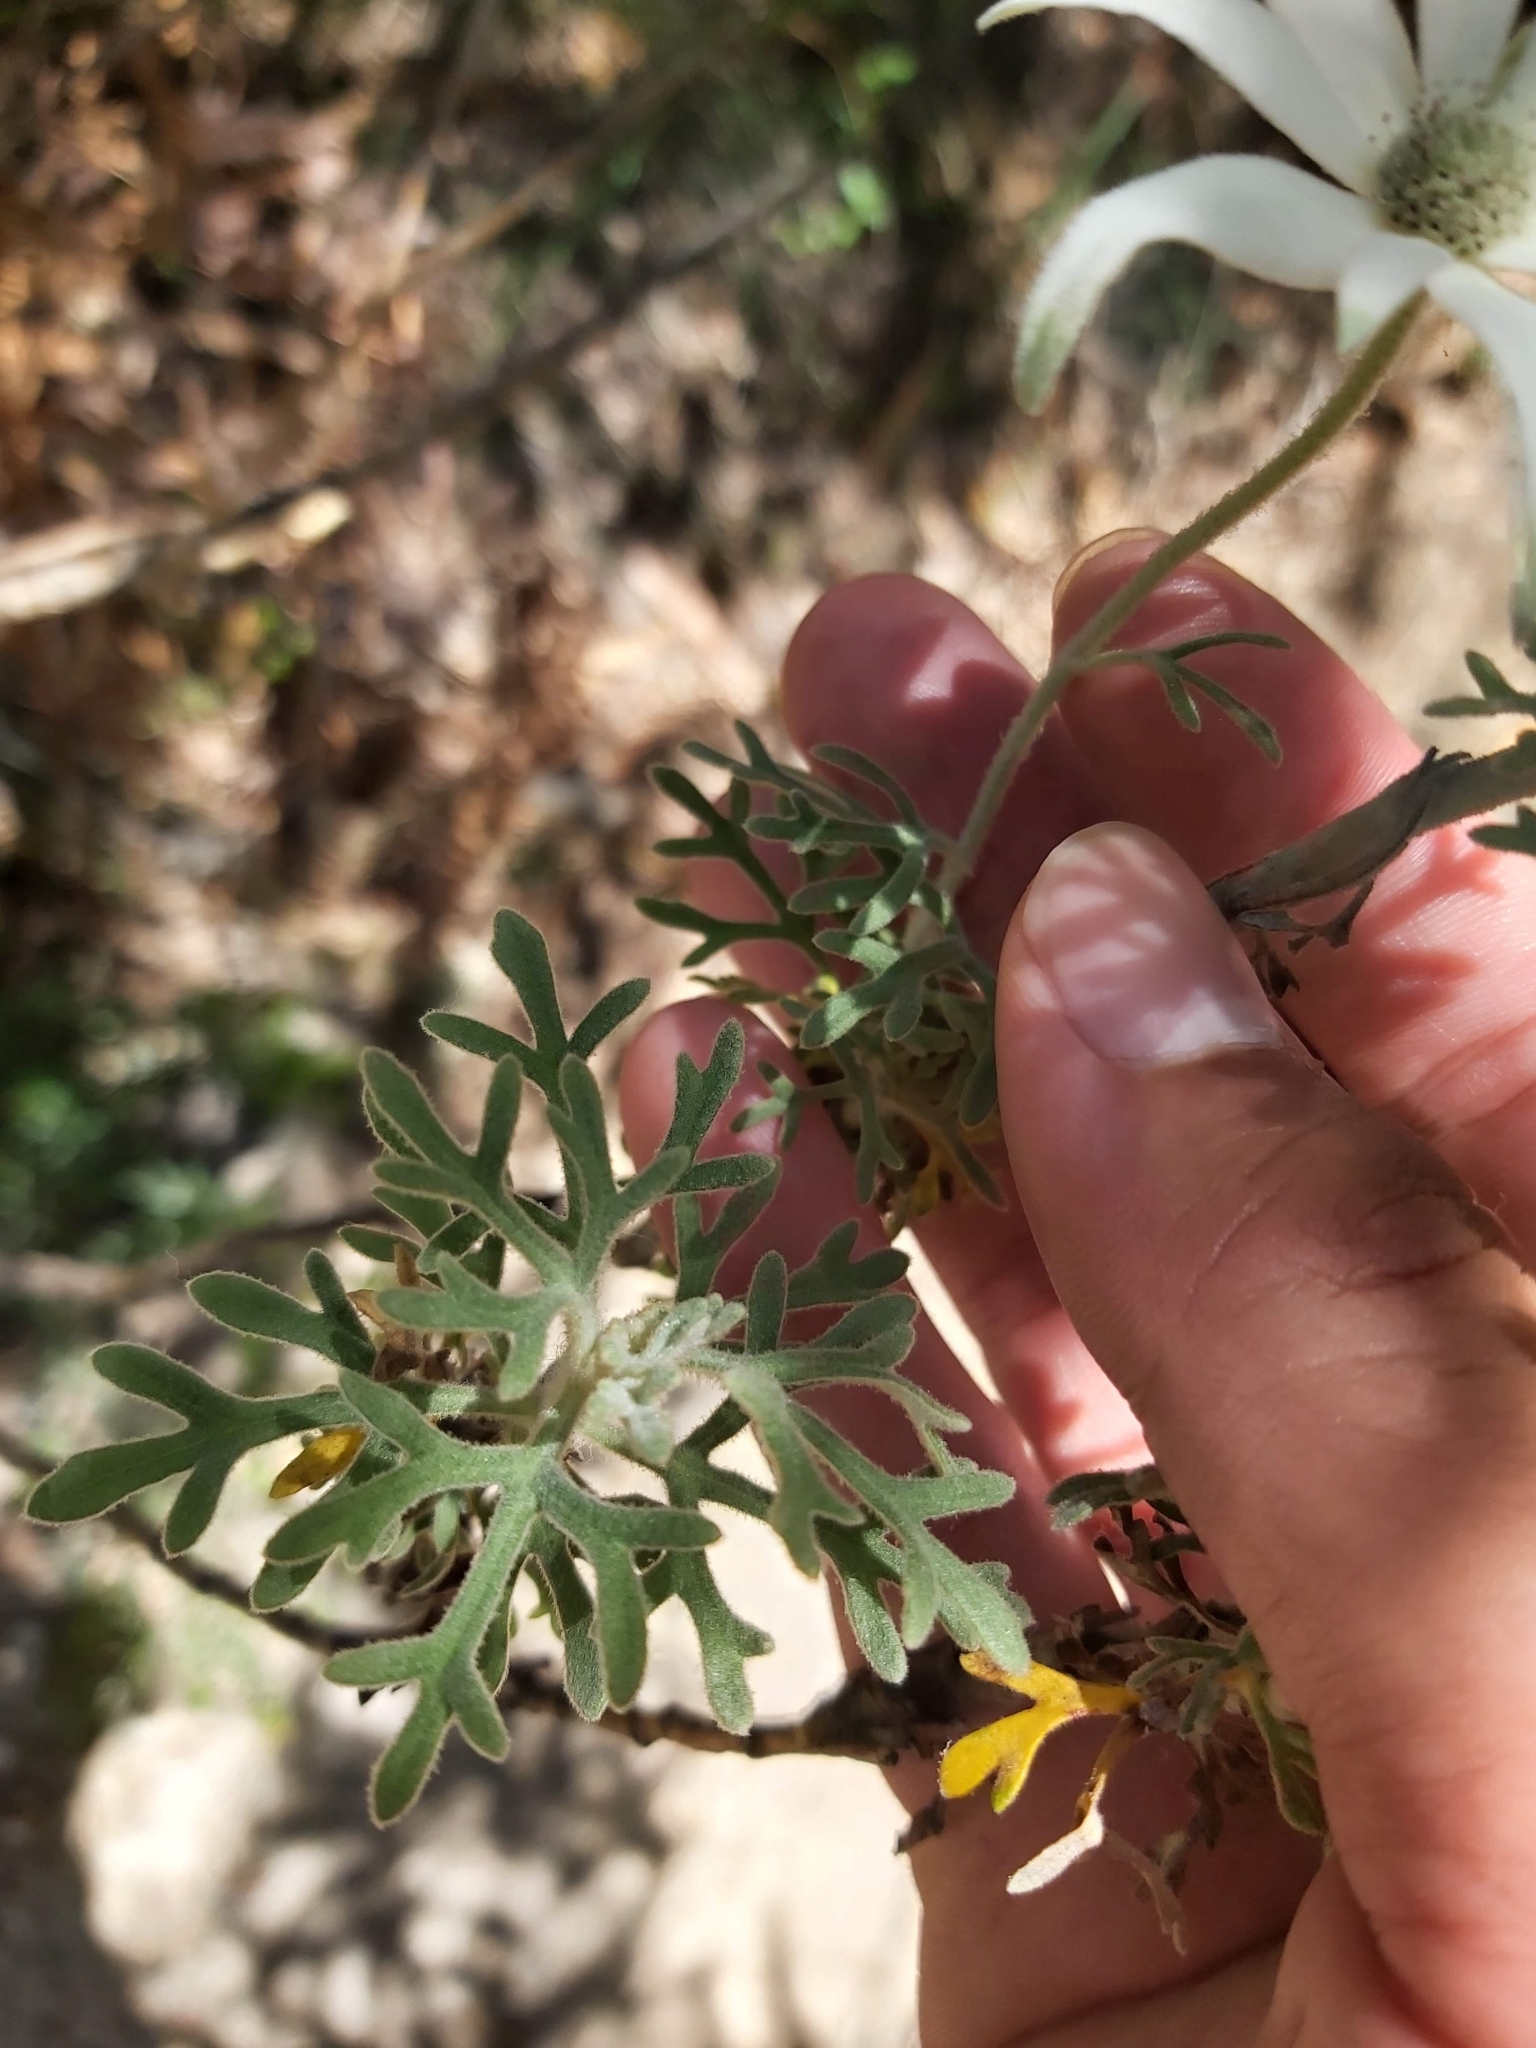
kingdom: Plantae
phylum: Tracheophyta
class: Magnoliopsida
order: Apiales
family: Apiaceae
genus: Actinotus
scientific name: Actinotus helianthi
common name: Flannel-flower
